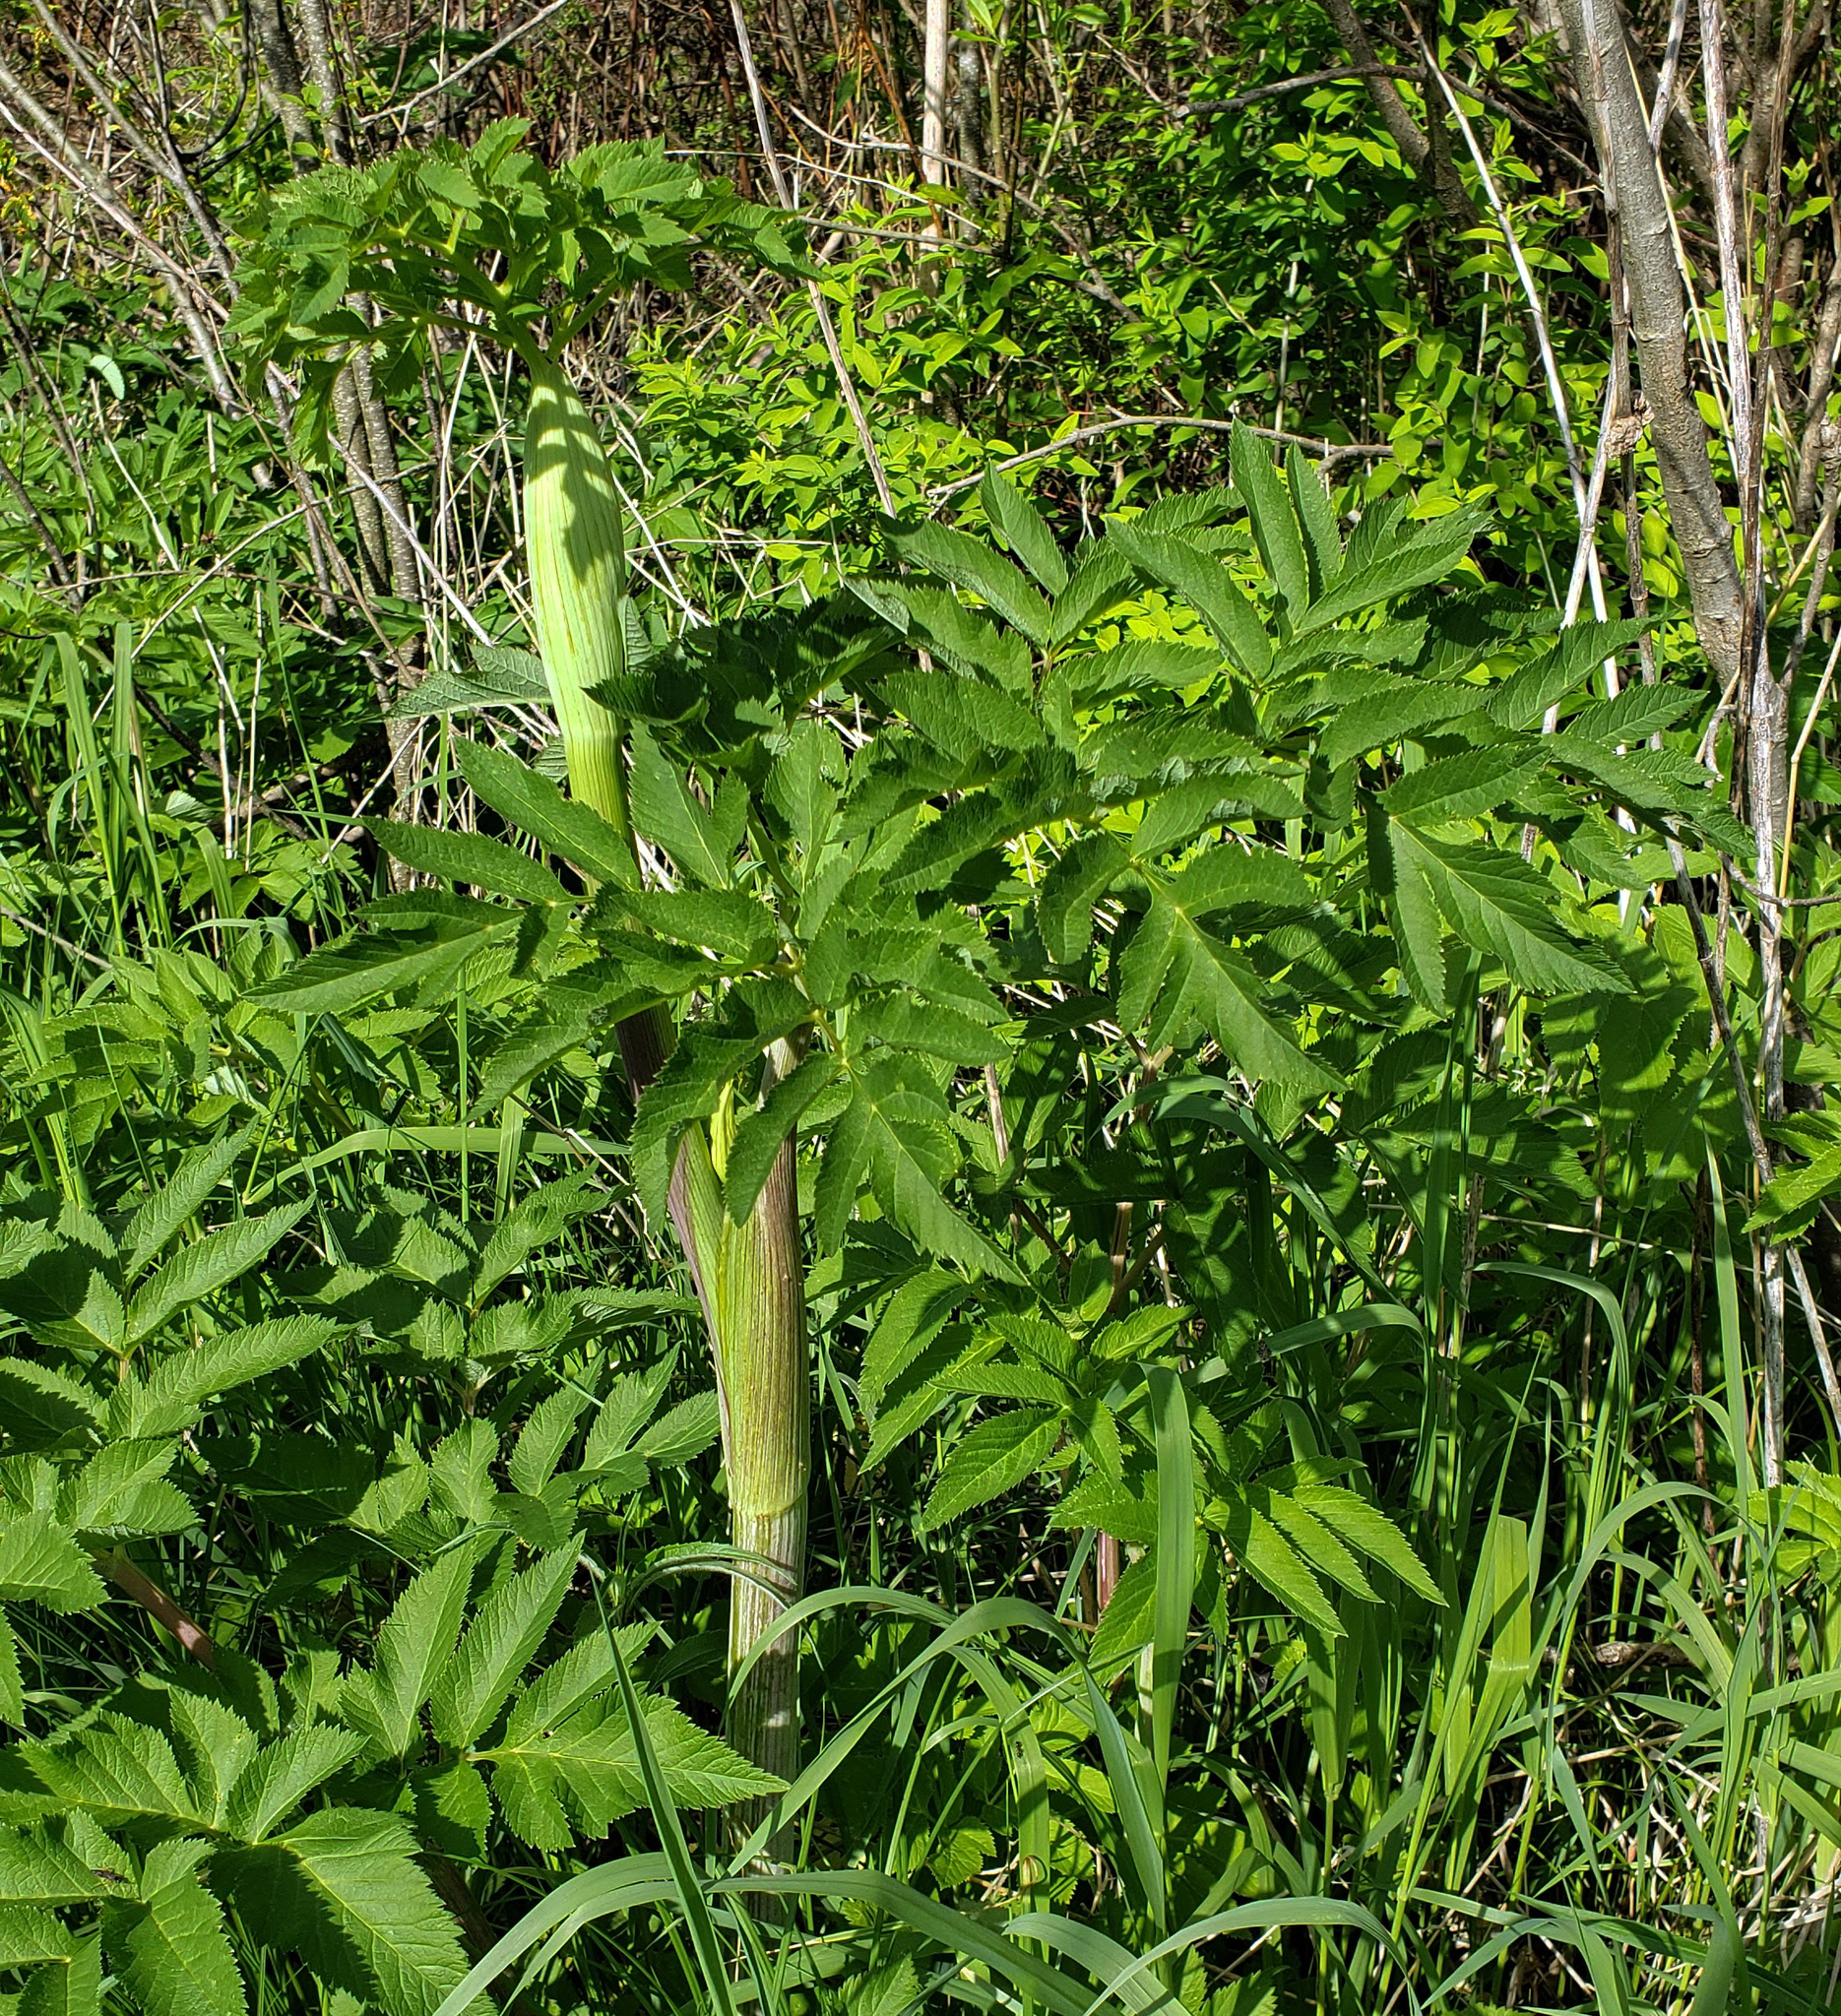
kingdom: Plantae
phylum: Tracheophyta
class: Magnoliopsida
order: Apiales
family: Apiaceae
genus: Angelica
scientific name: Angelica atropurpurea
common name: Great angelica
